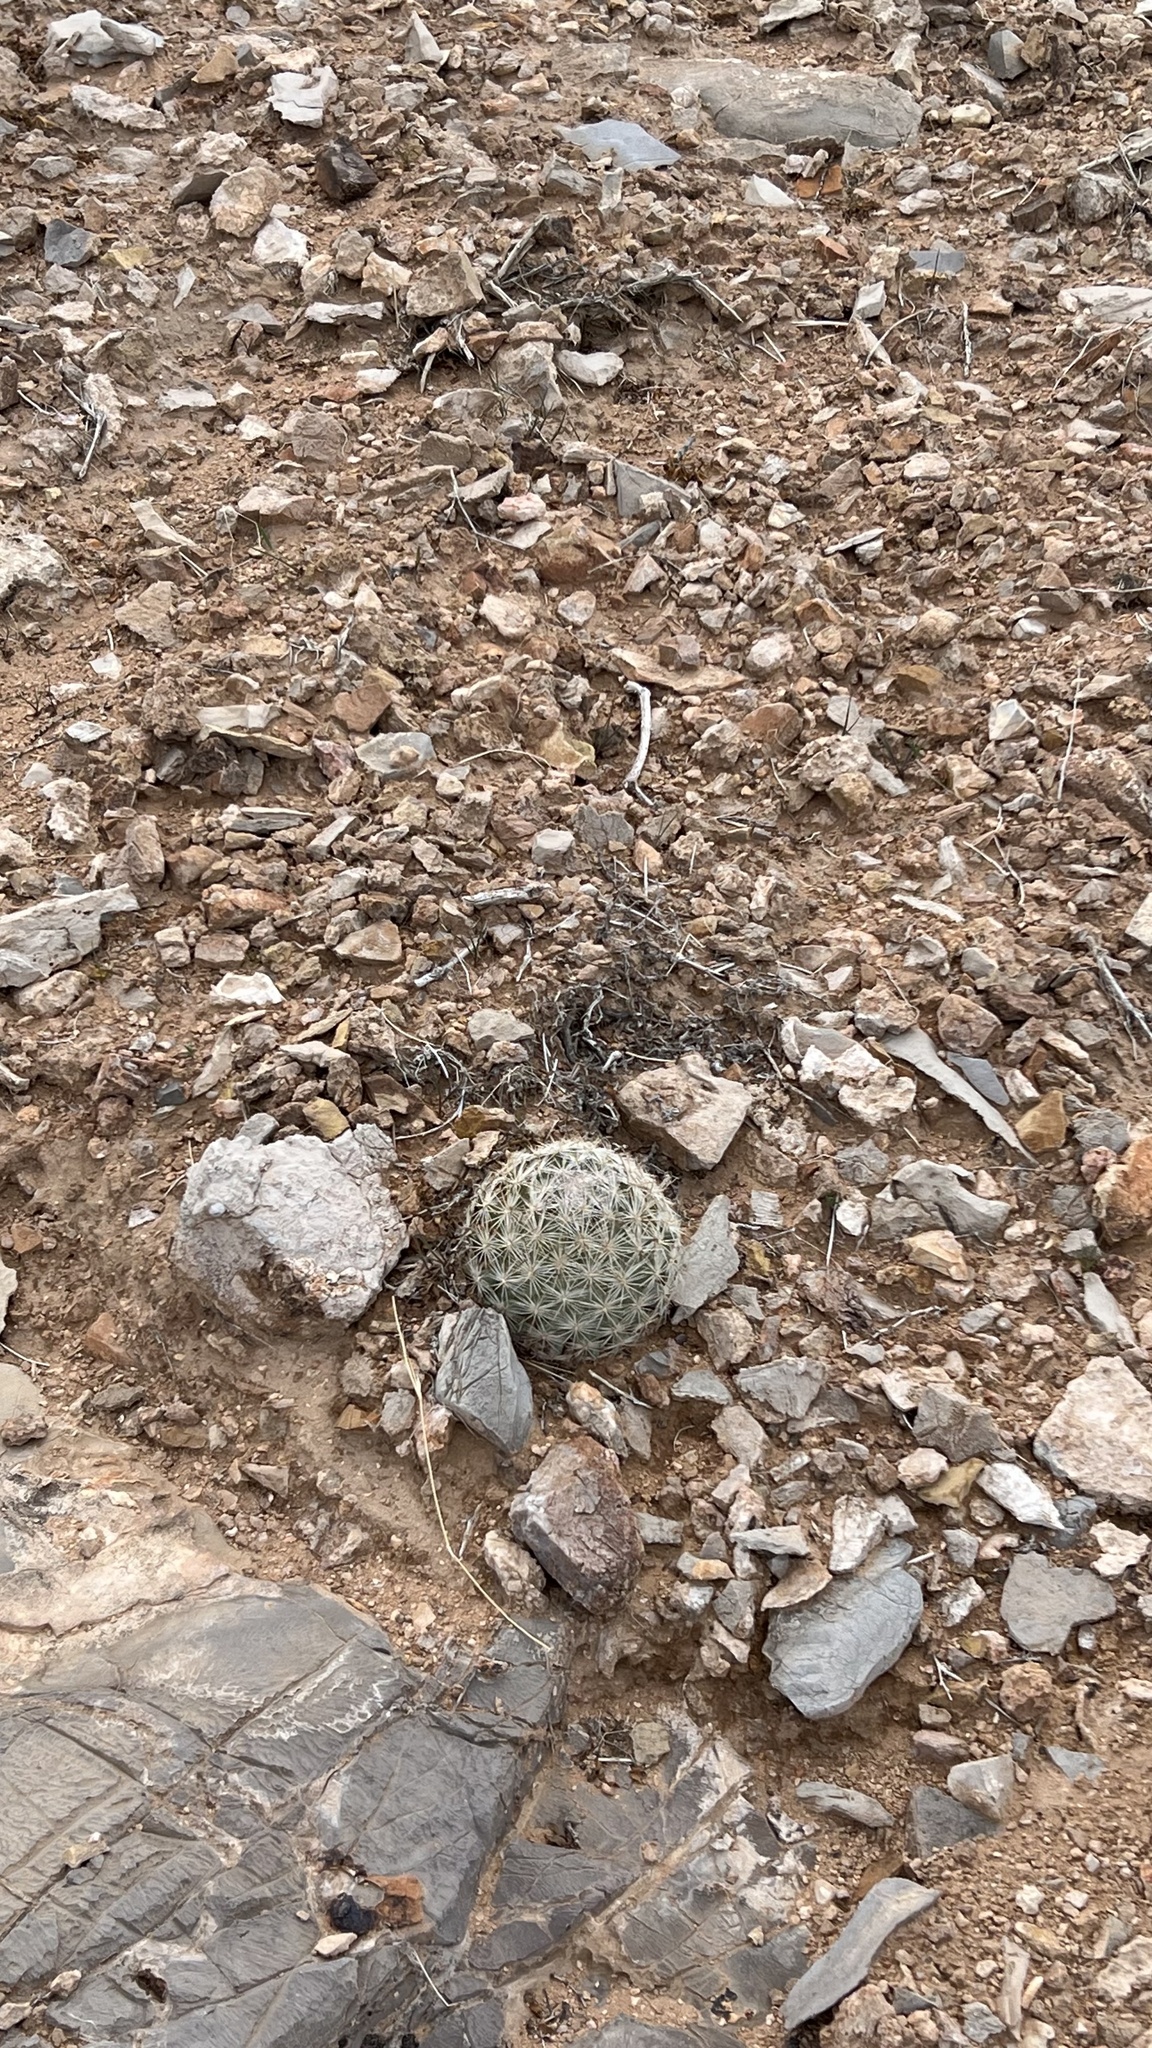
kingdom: Plantae
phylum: Tracheophyta
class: Magnoliopsida
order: Caryophyllales
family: Cactaceae
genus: Pelecyphora
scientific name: Pelecyphora dasyacantha
